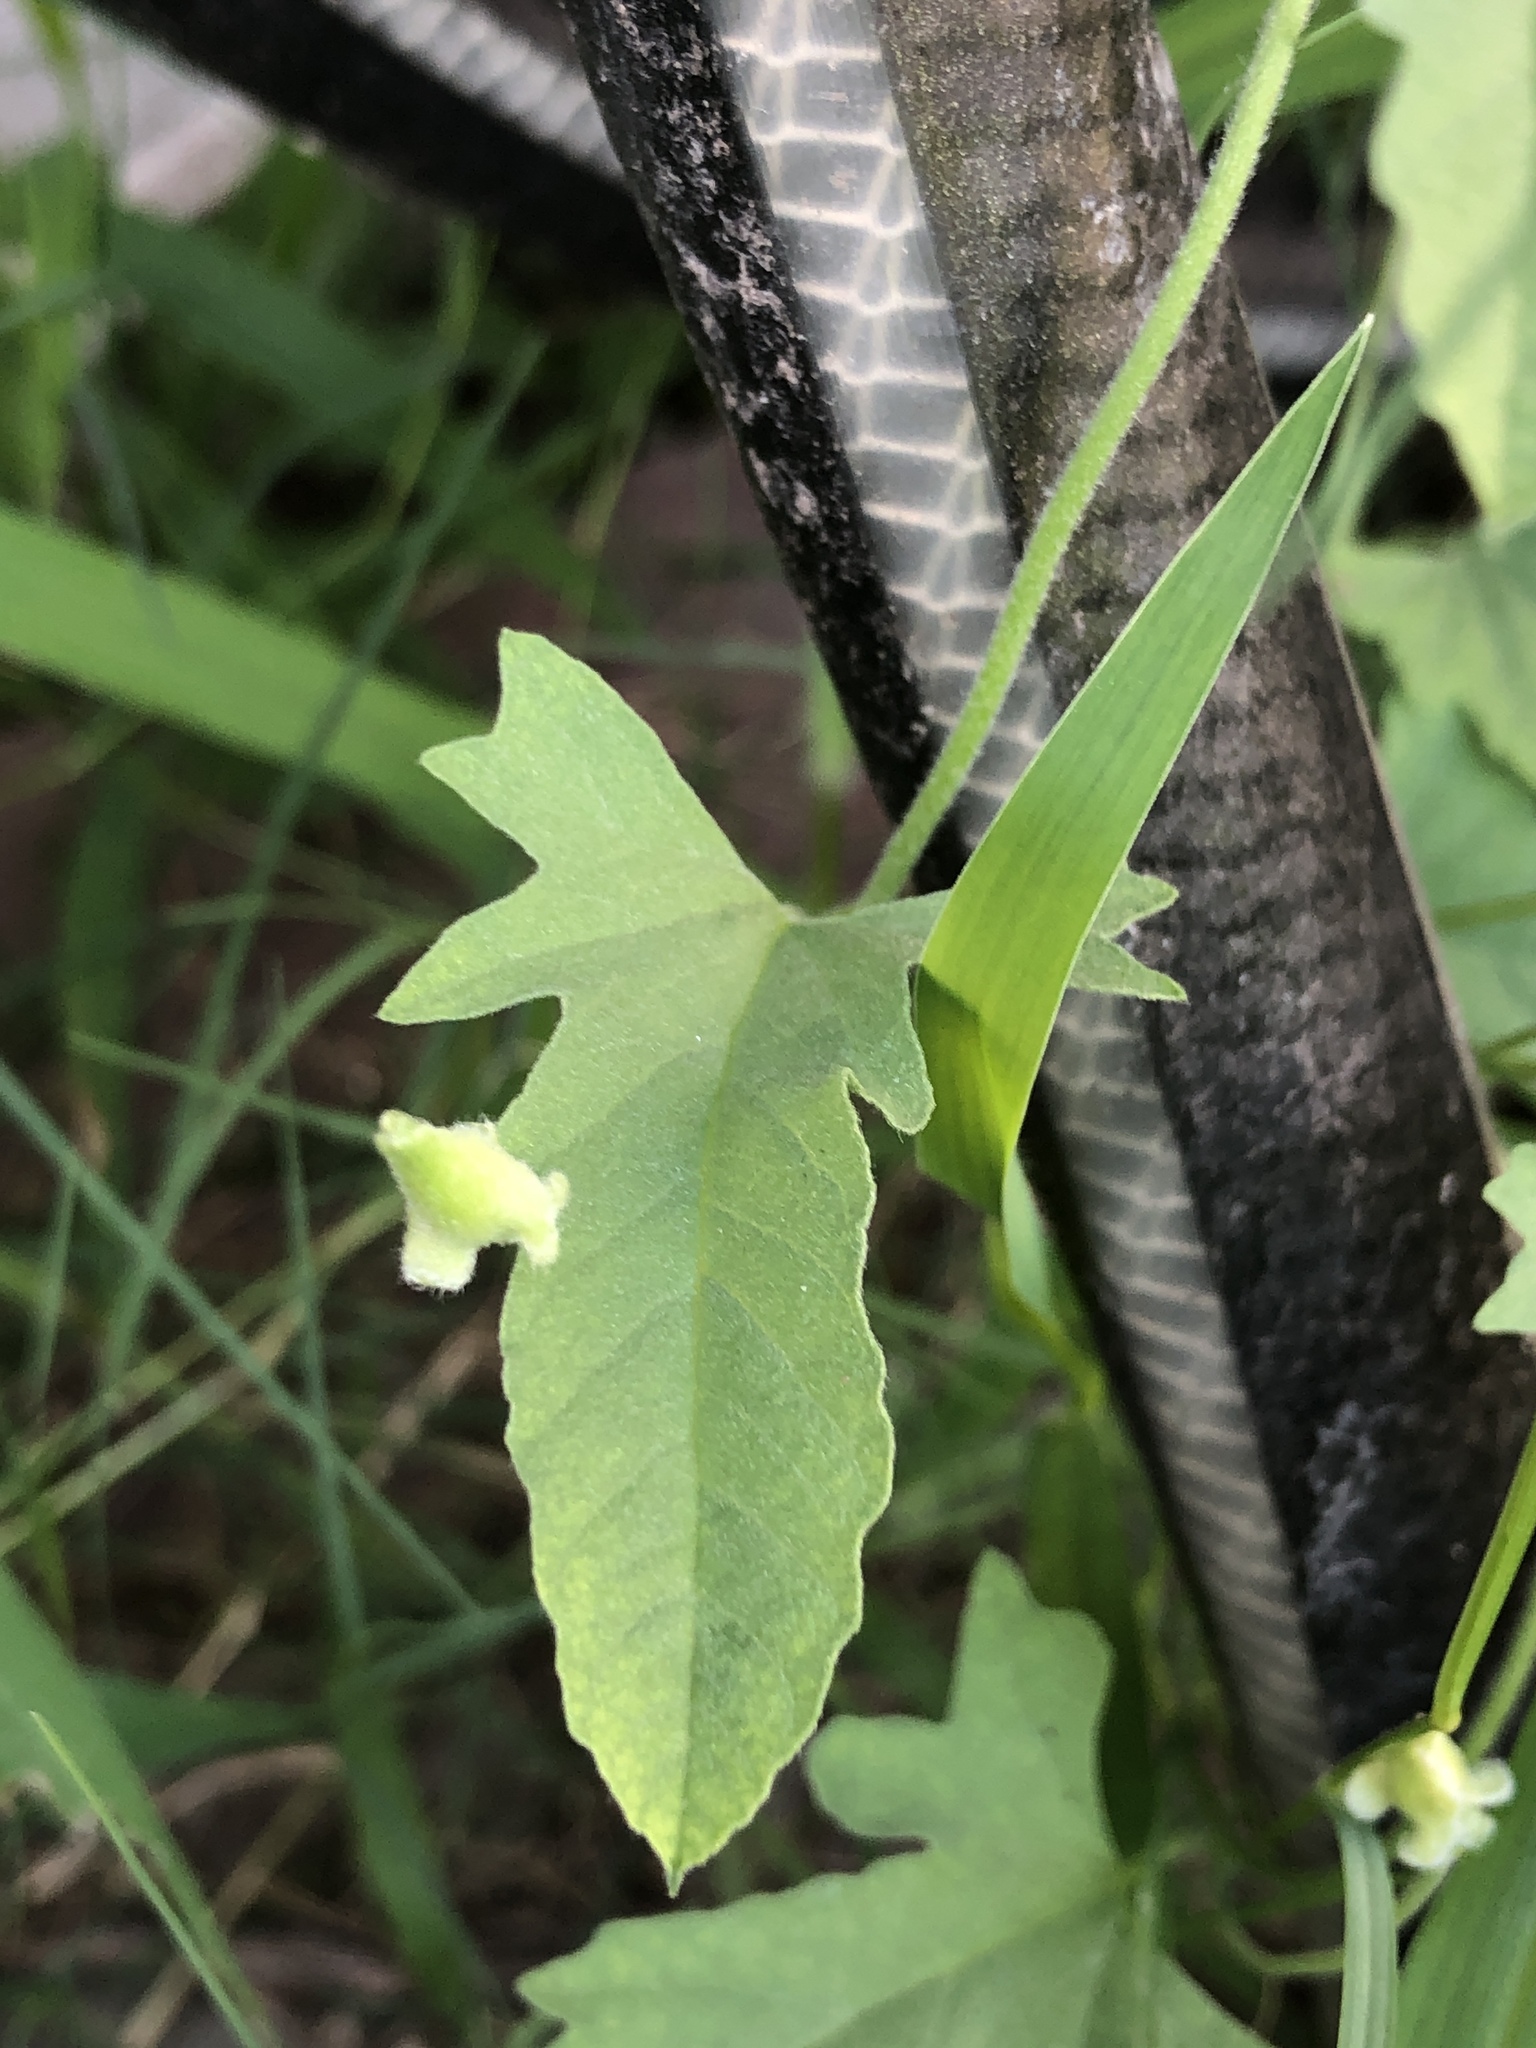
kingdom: Plantae
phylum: Tracheophyta
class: Magnoliopsida
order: Solanales
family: Convolvulaceae
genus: Convolvulus
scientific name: Convolvulus equitans
